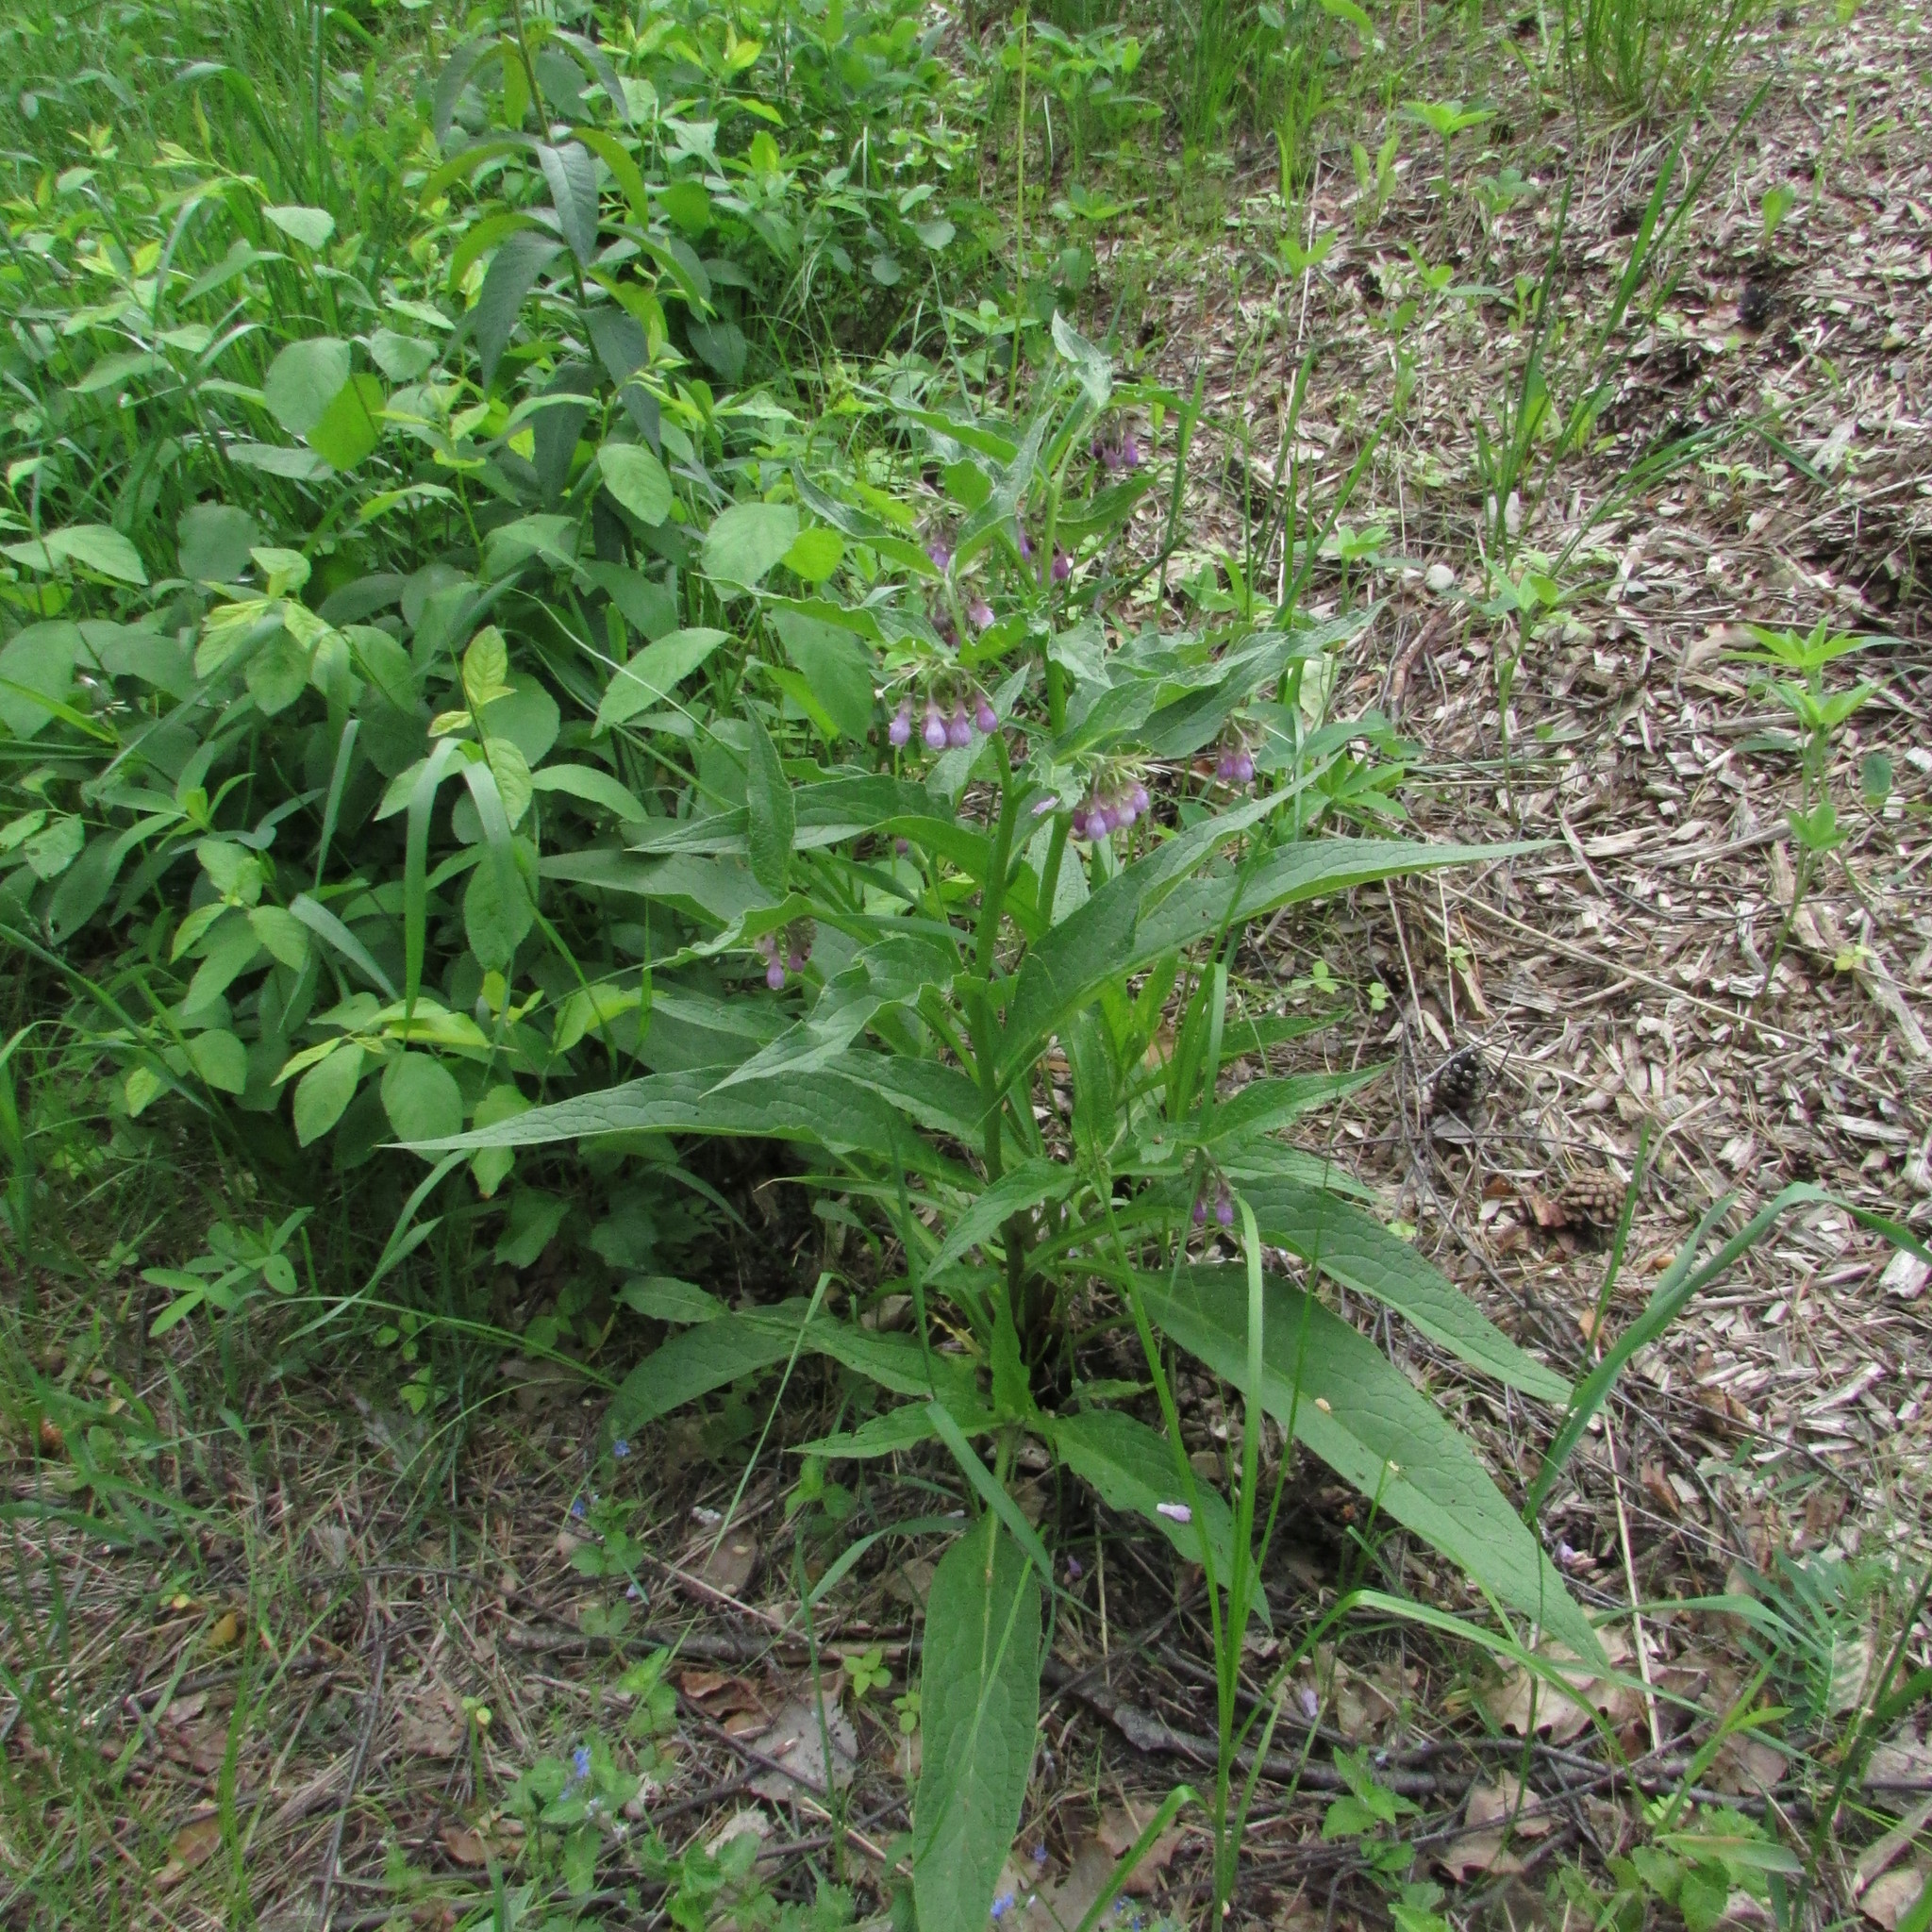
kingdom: Plantae
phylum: Tracheophyta
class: Magnoliopsida
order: Boraginales
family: Boraginaceae
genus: Symphytum
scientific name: Symphytum officinale
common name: Common comfrey
